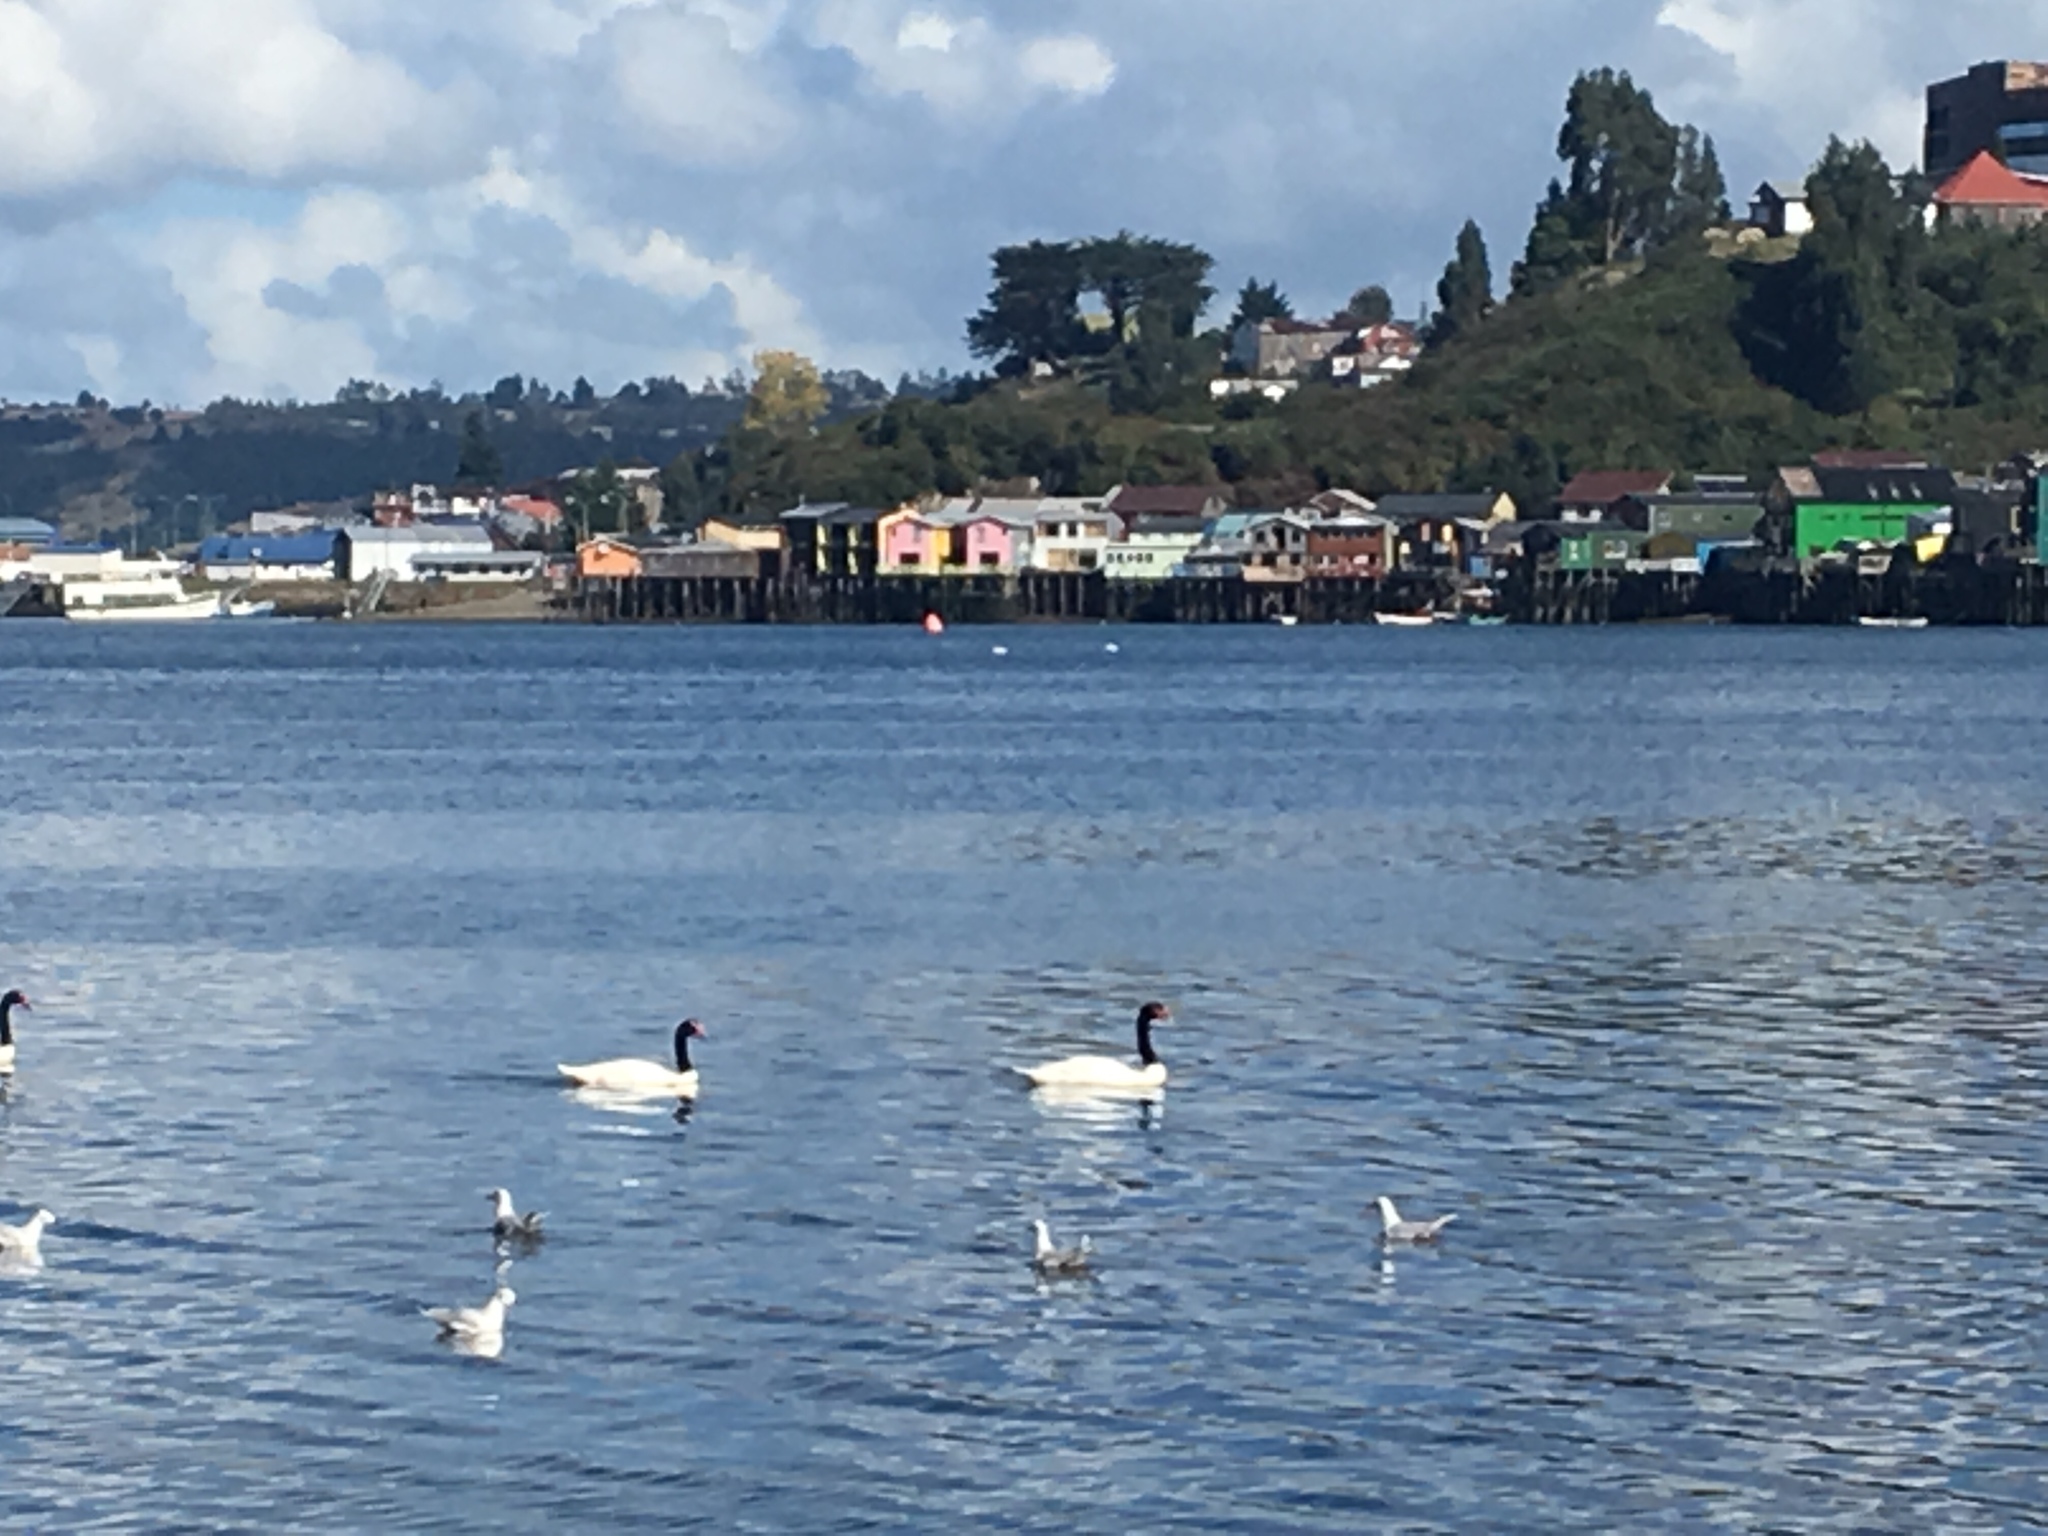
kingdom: Animalia
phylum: Chordata
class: Aves
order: Anseriformes
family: Anatidae
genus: Cygnus
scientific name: Cygnus melancoryphus
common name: Black-necked swan
